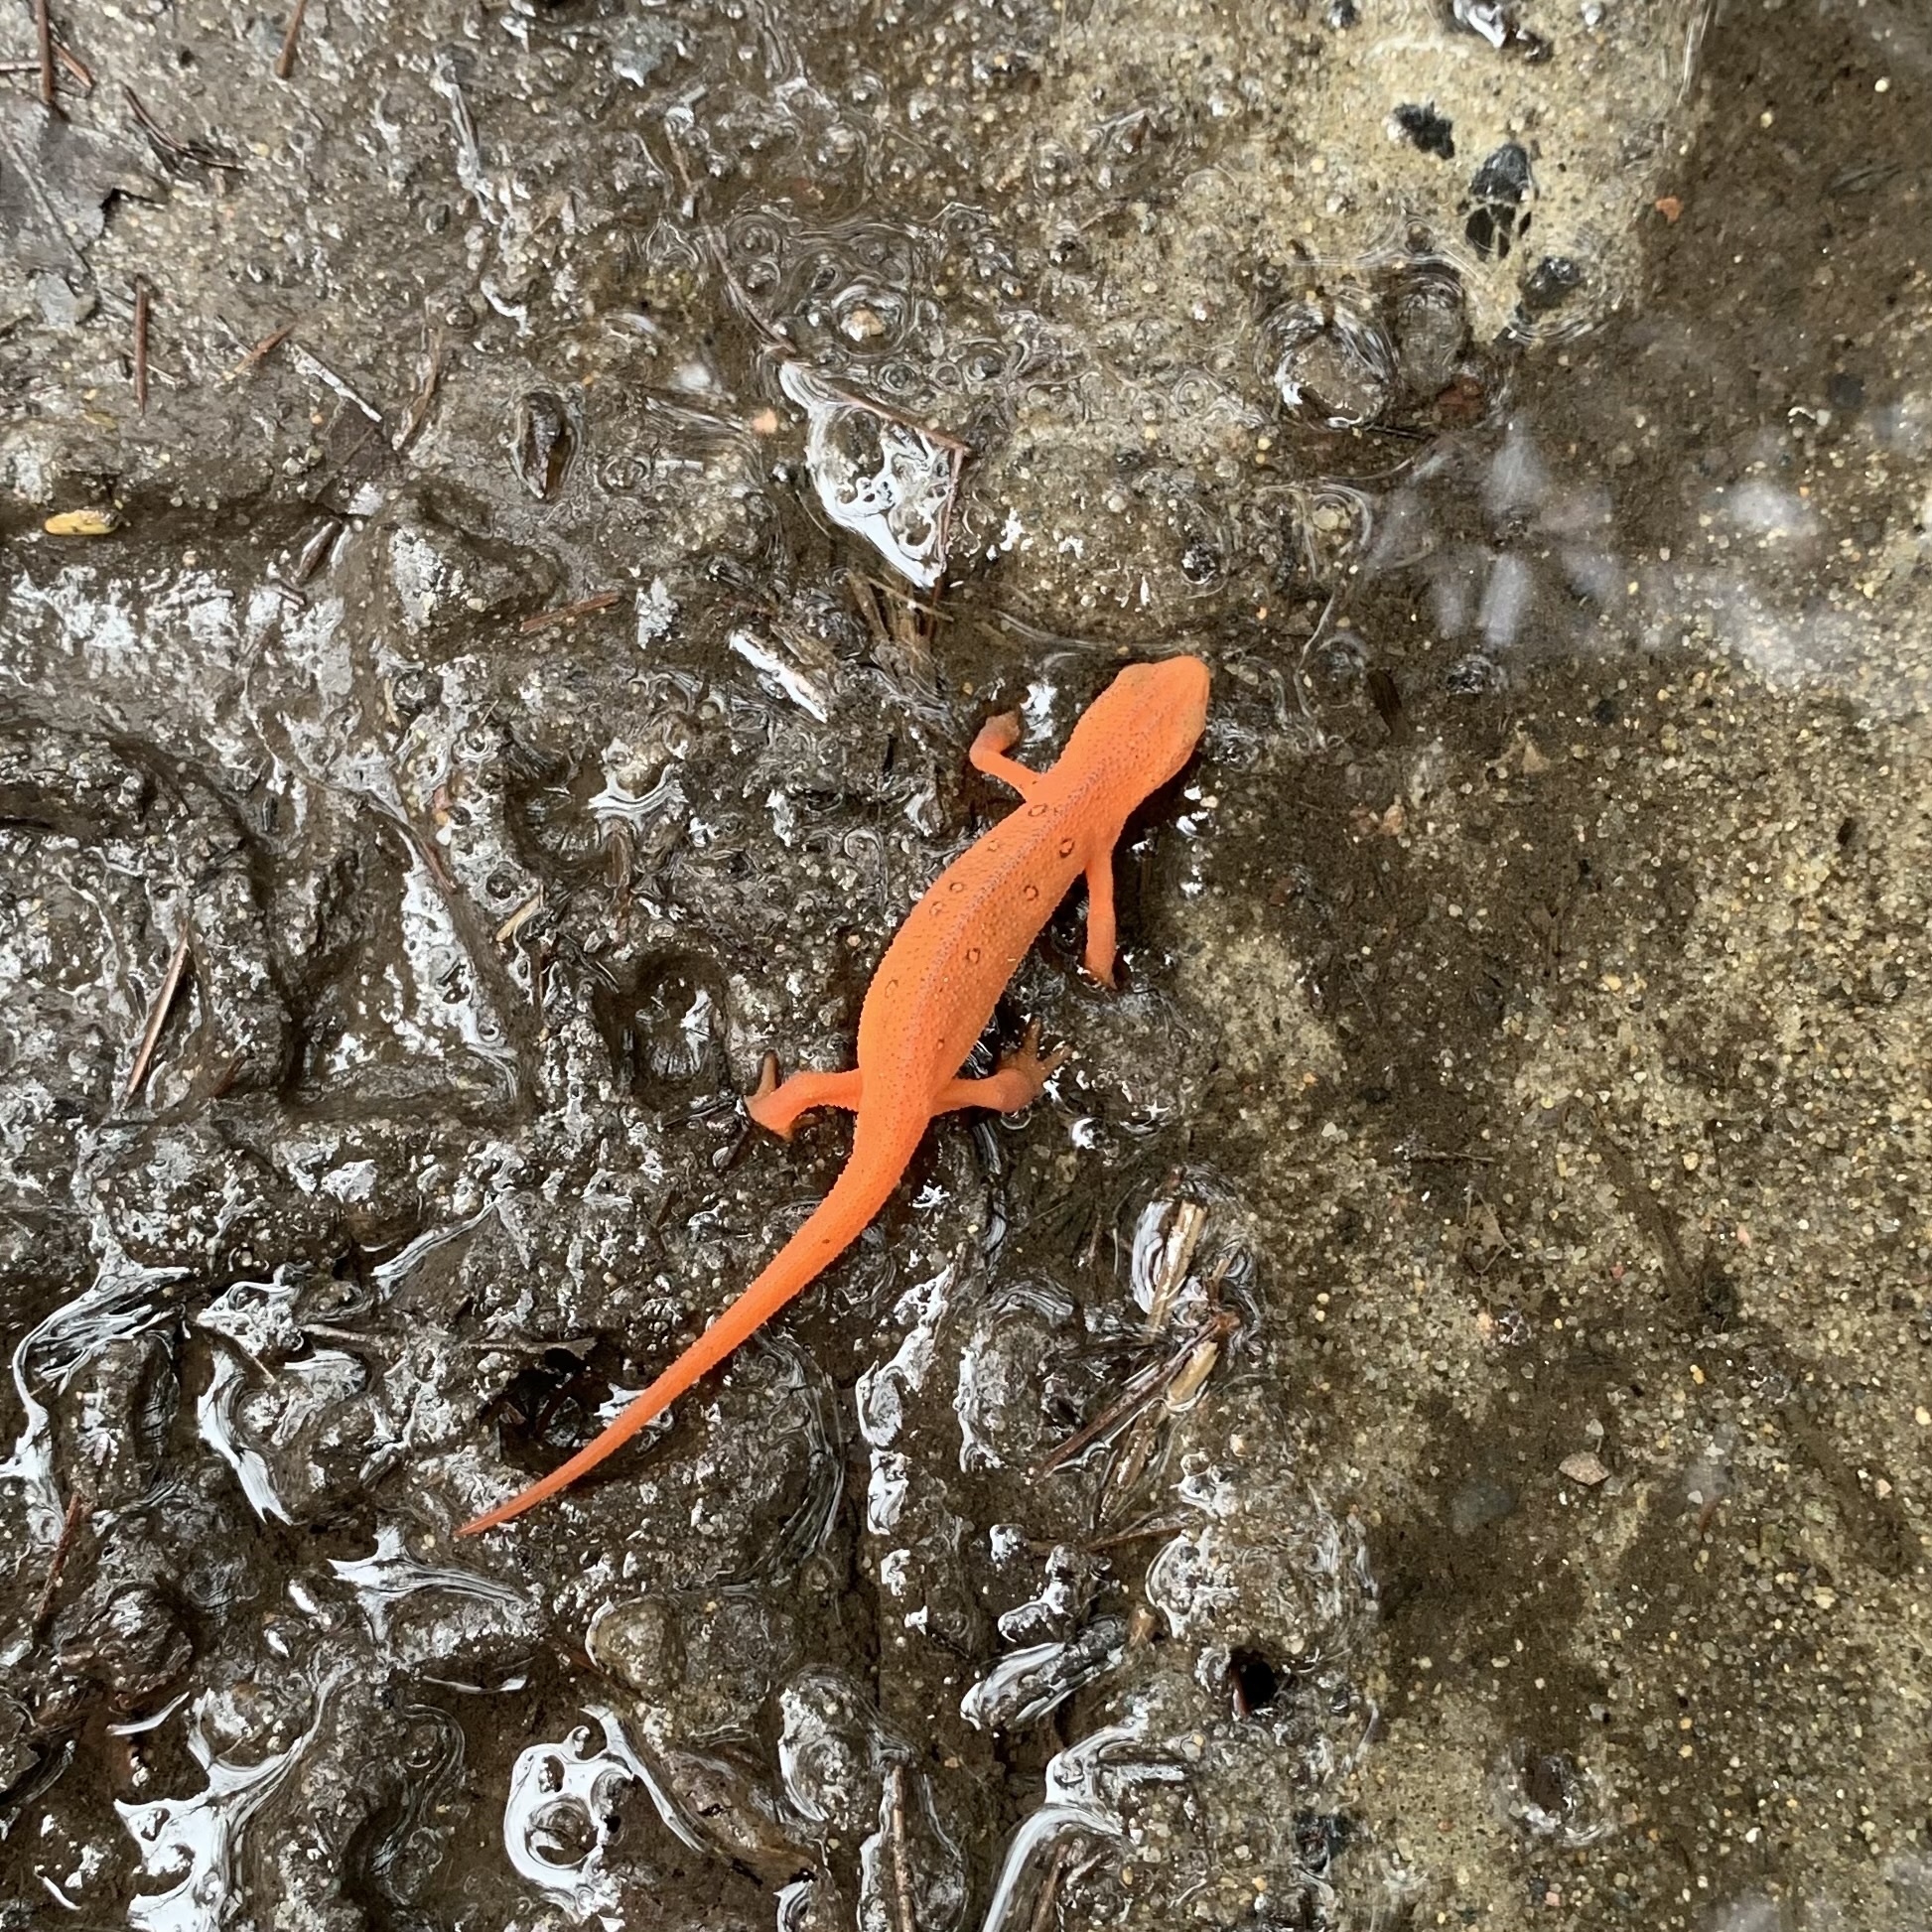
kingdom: Animalia
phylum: Chordata
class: Amphibia
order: Caudata
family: Salamandridae
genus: Notophthalmus
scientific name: Notophthalmus viridescens
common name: Eastern newt
